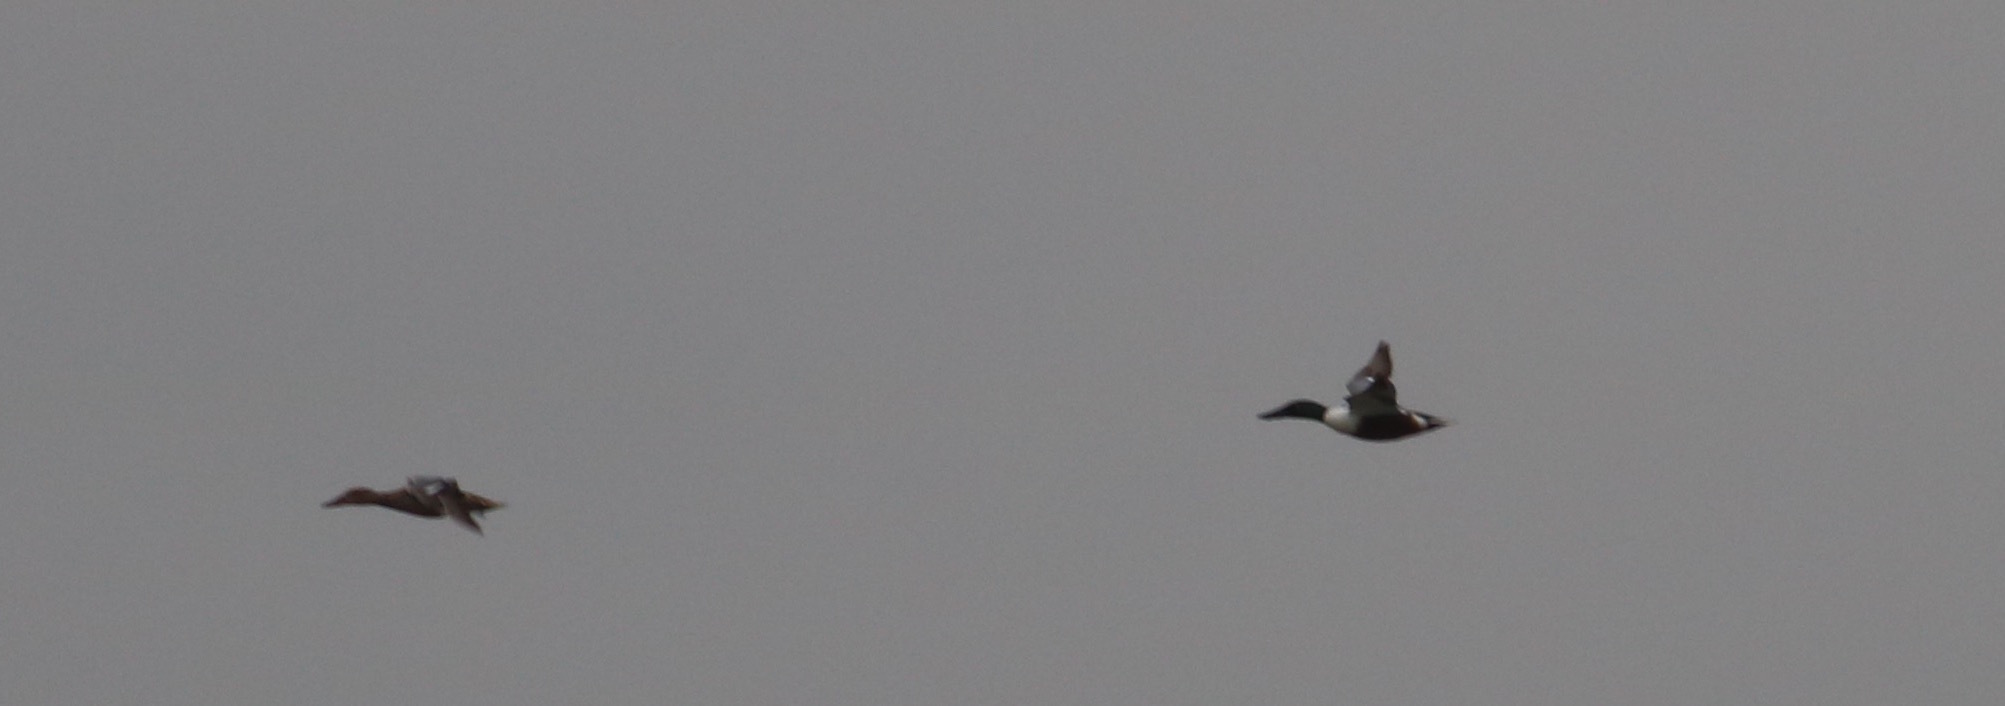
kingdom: Animalia
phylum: Chordata
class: Aves
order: Anseriformes
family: Anatidae
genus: Spatula
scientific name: Spatula clypeata
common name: Northern shoveler
